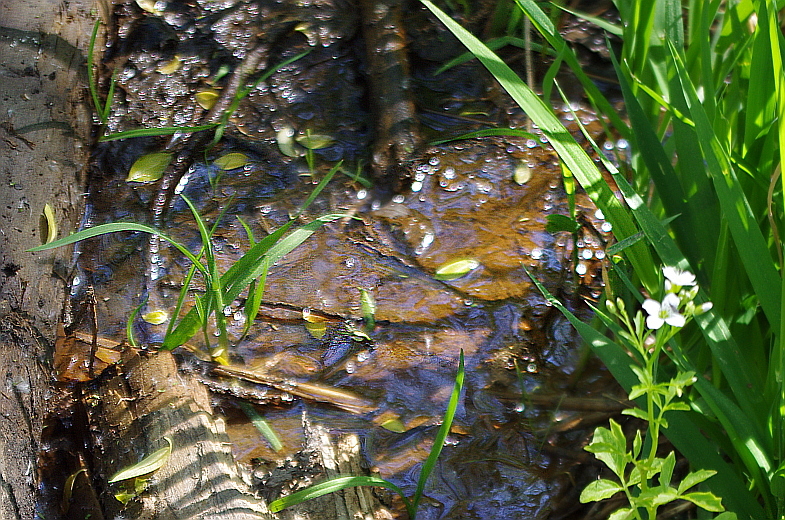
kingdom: Bacteria
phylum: Proteobacteria
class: Gammaproteobacteria
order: Burkholderiales
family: Burkholderiaceae
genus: Leptothrix
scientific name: Leptothrix
